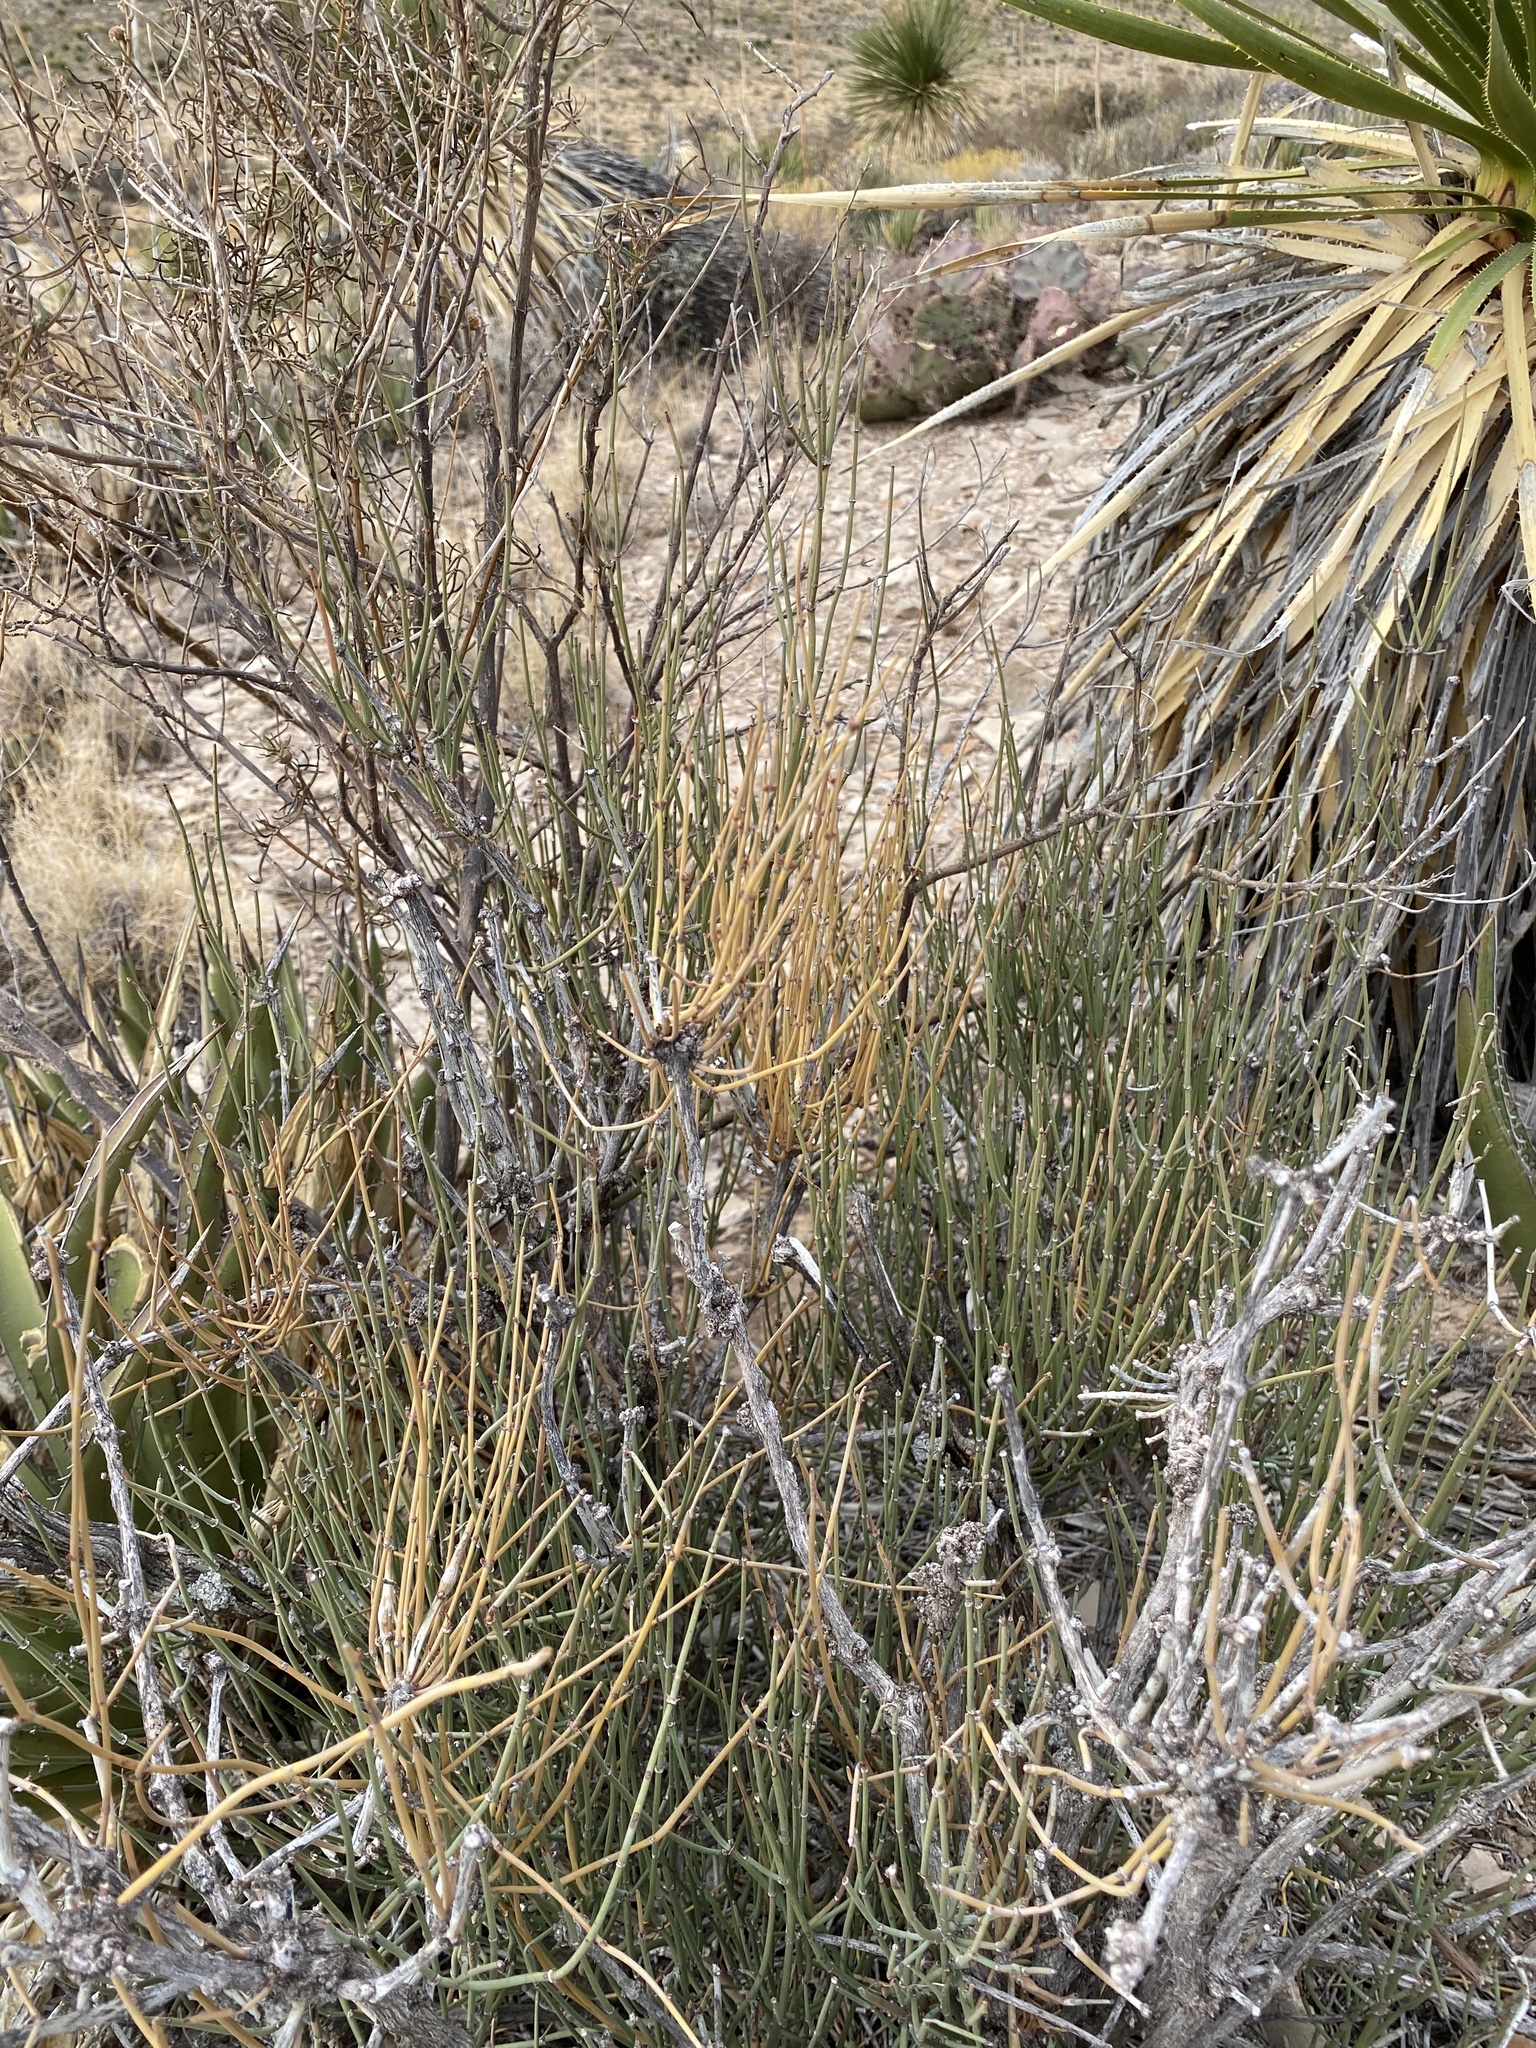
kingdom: Plantae
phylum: Tracheophyta
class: Gnetopsida
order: Ephedrales
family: Ephedraceae
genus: Ephedra
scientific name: Ephedra trifurca
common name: Mexican-tea
